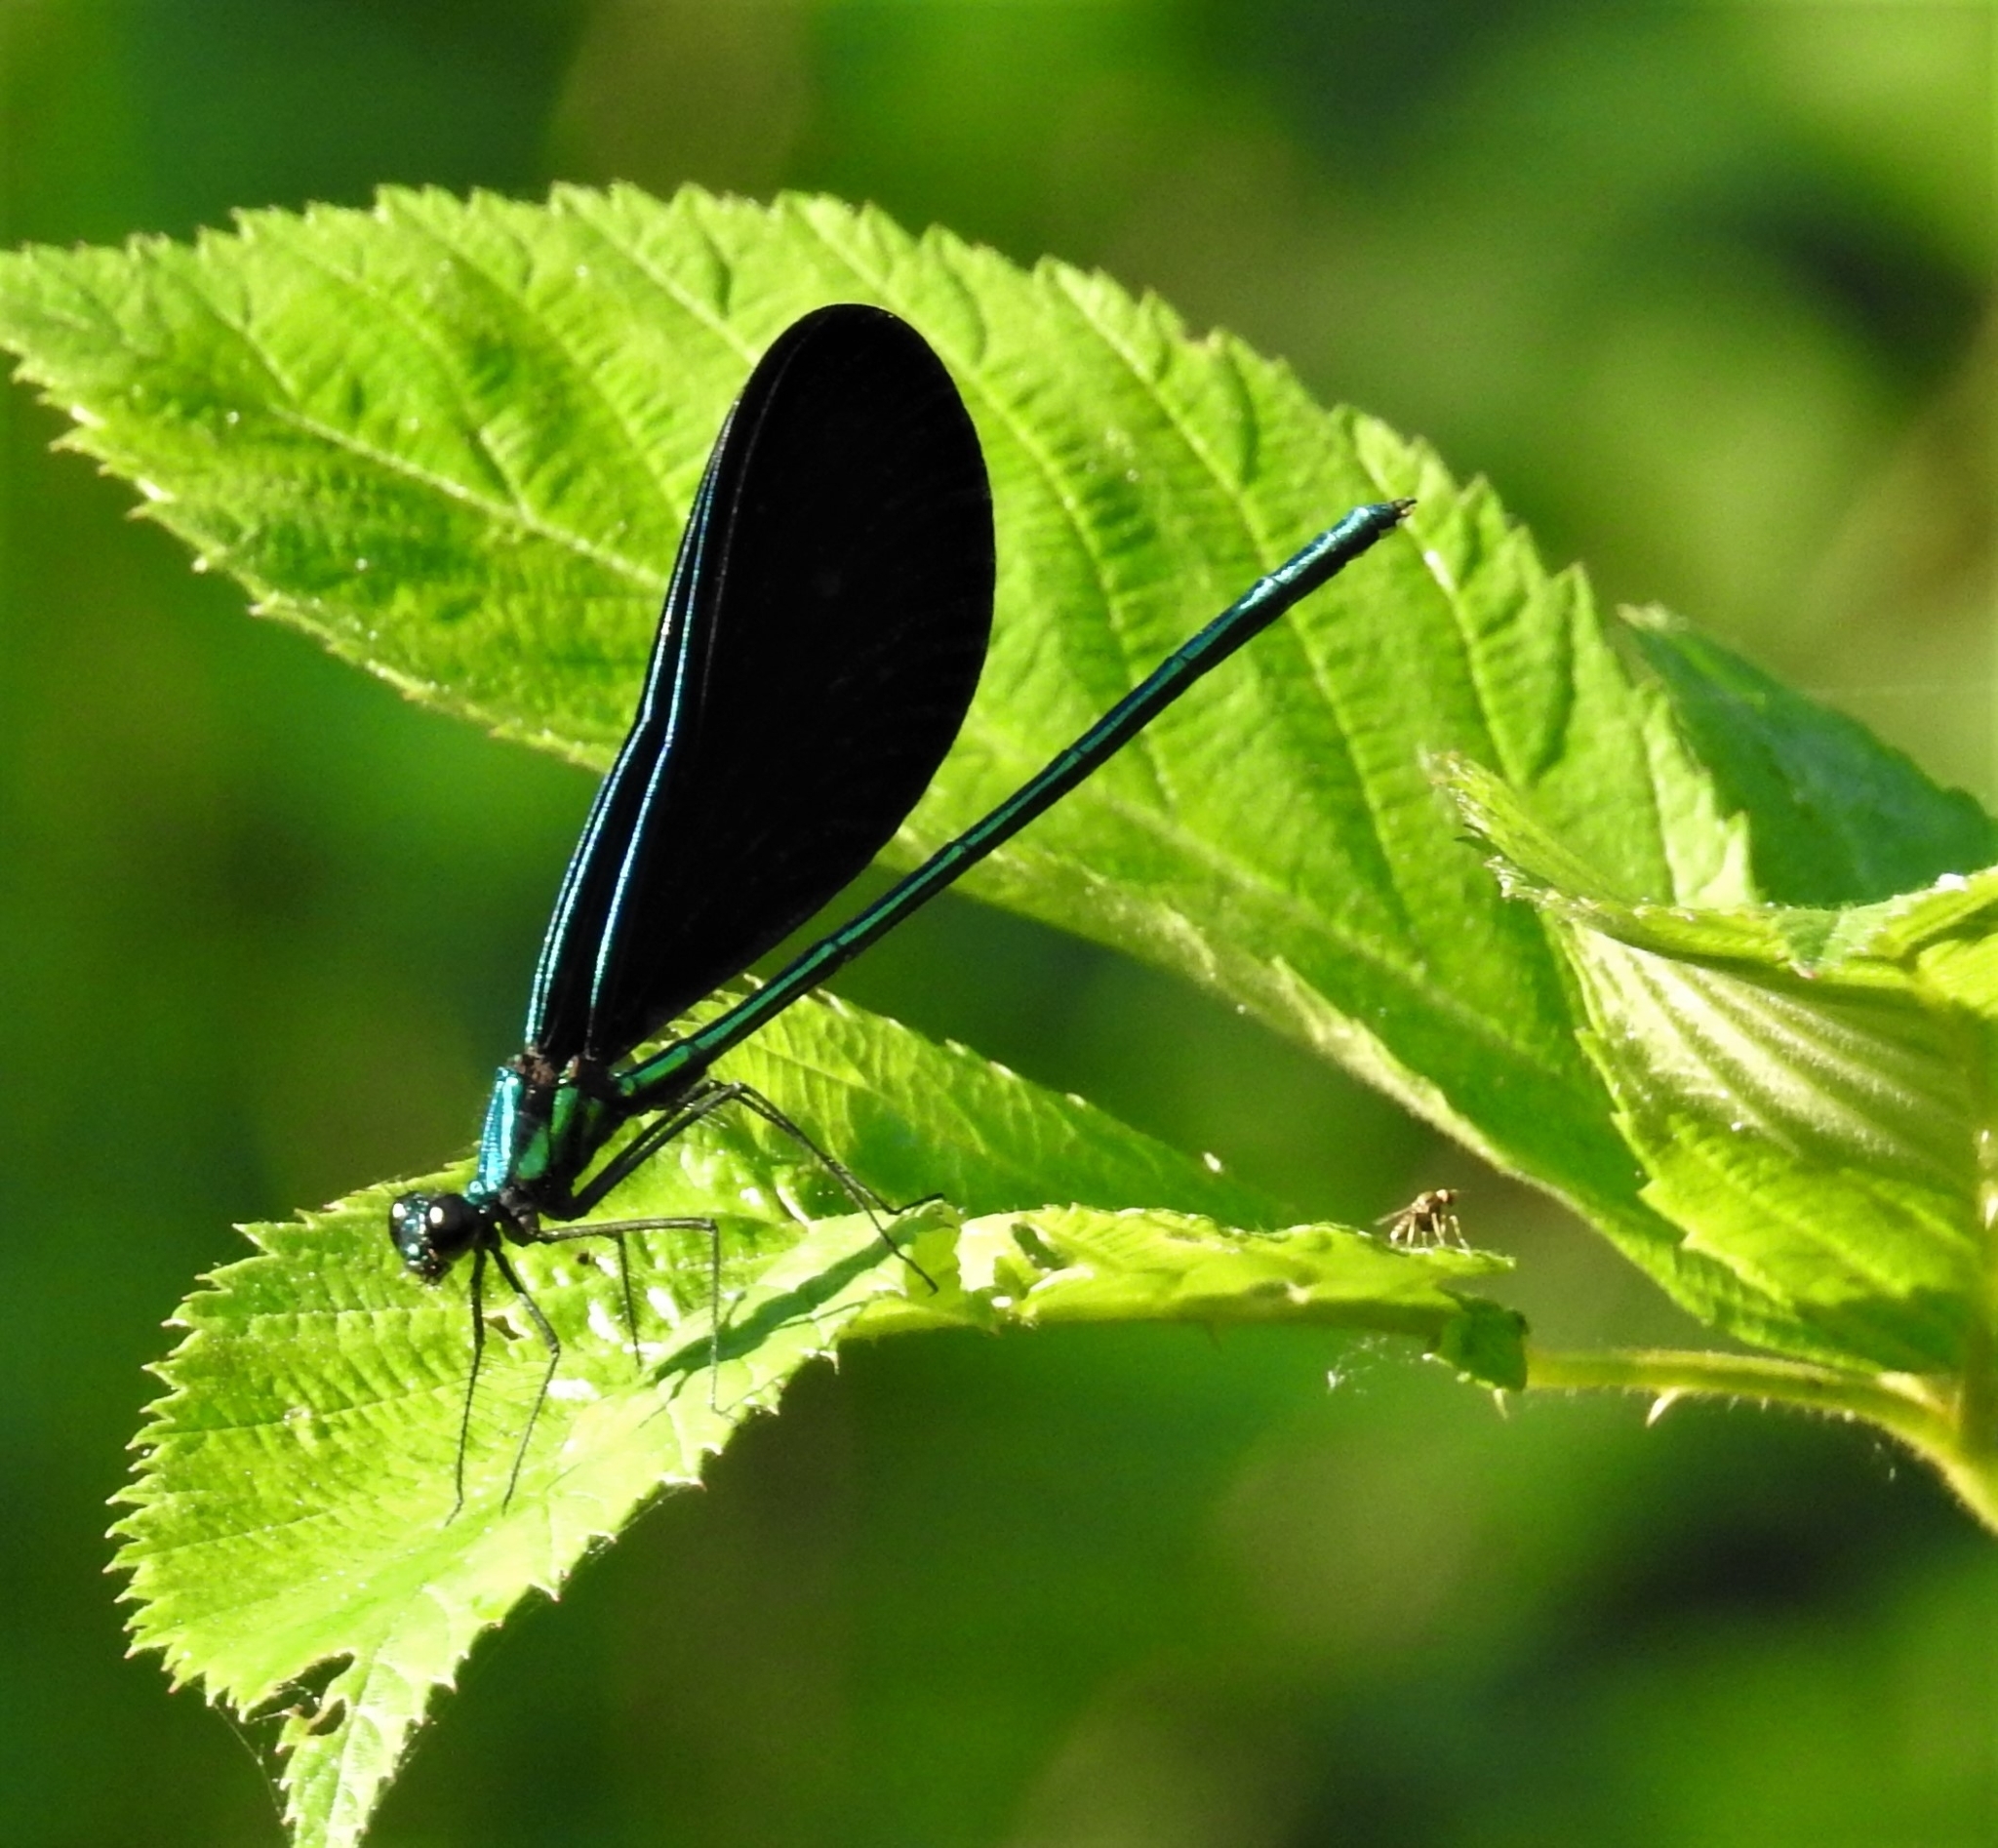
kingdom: Animalia
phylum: Arthropoda
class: Insecta
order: Odonata
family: Calopterygidae
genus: Calopteryx
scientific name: Calopteryx maculata
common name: Ebony jewelwing
